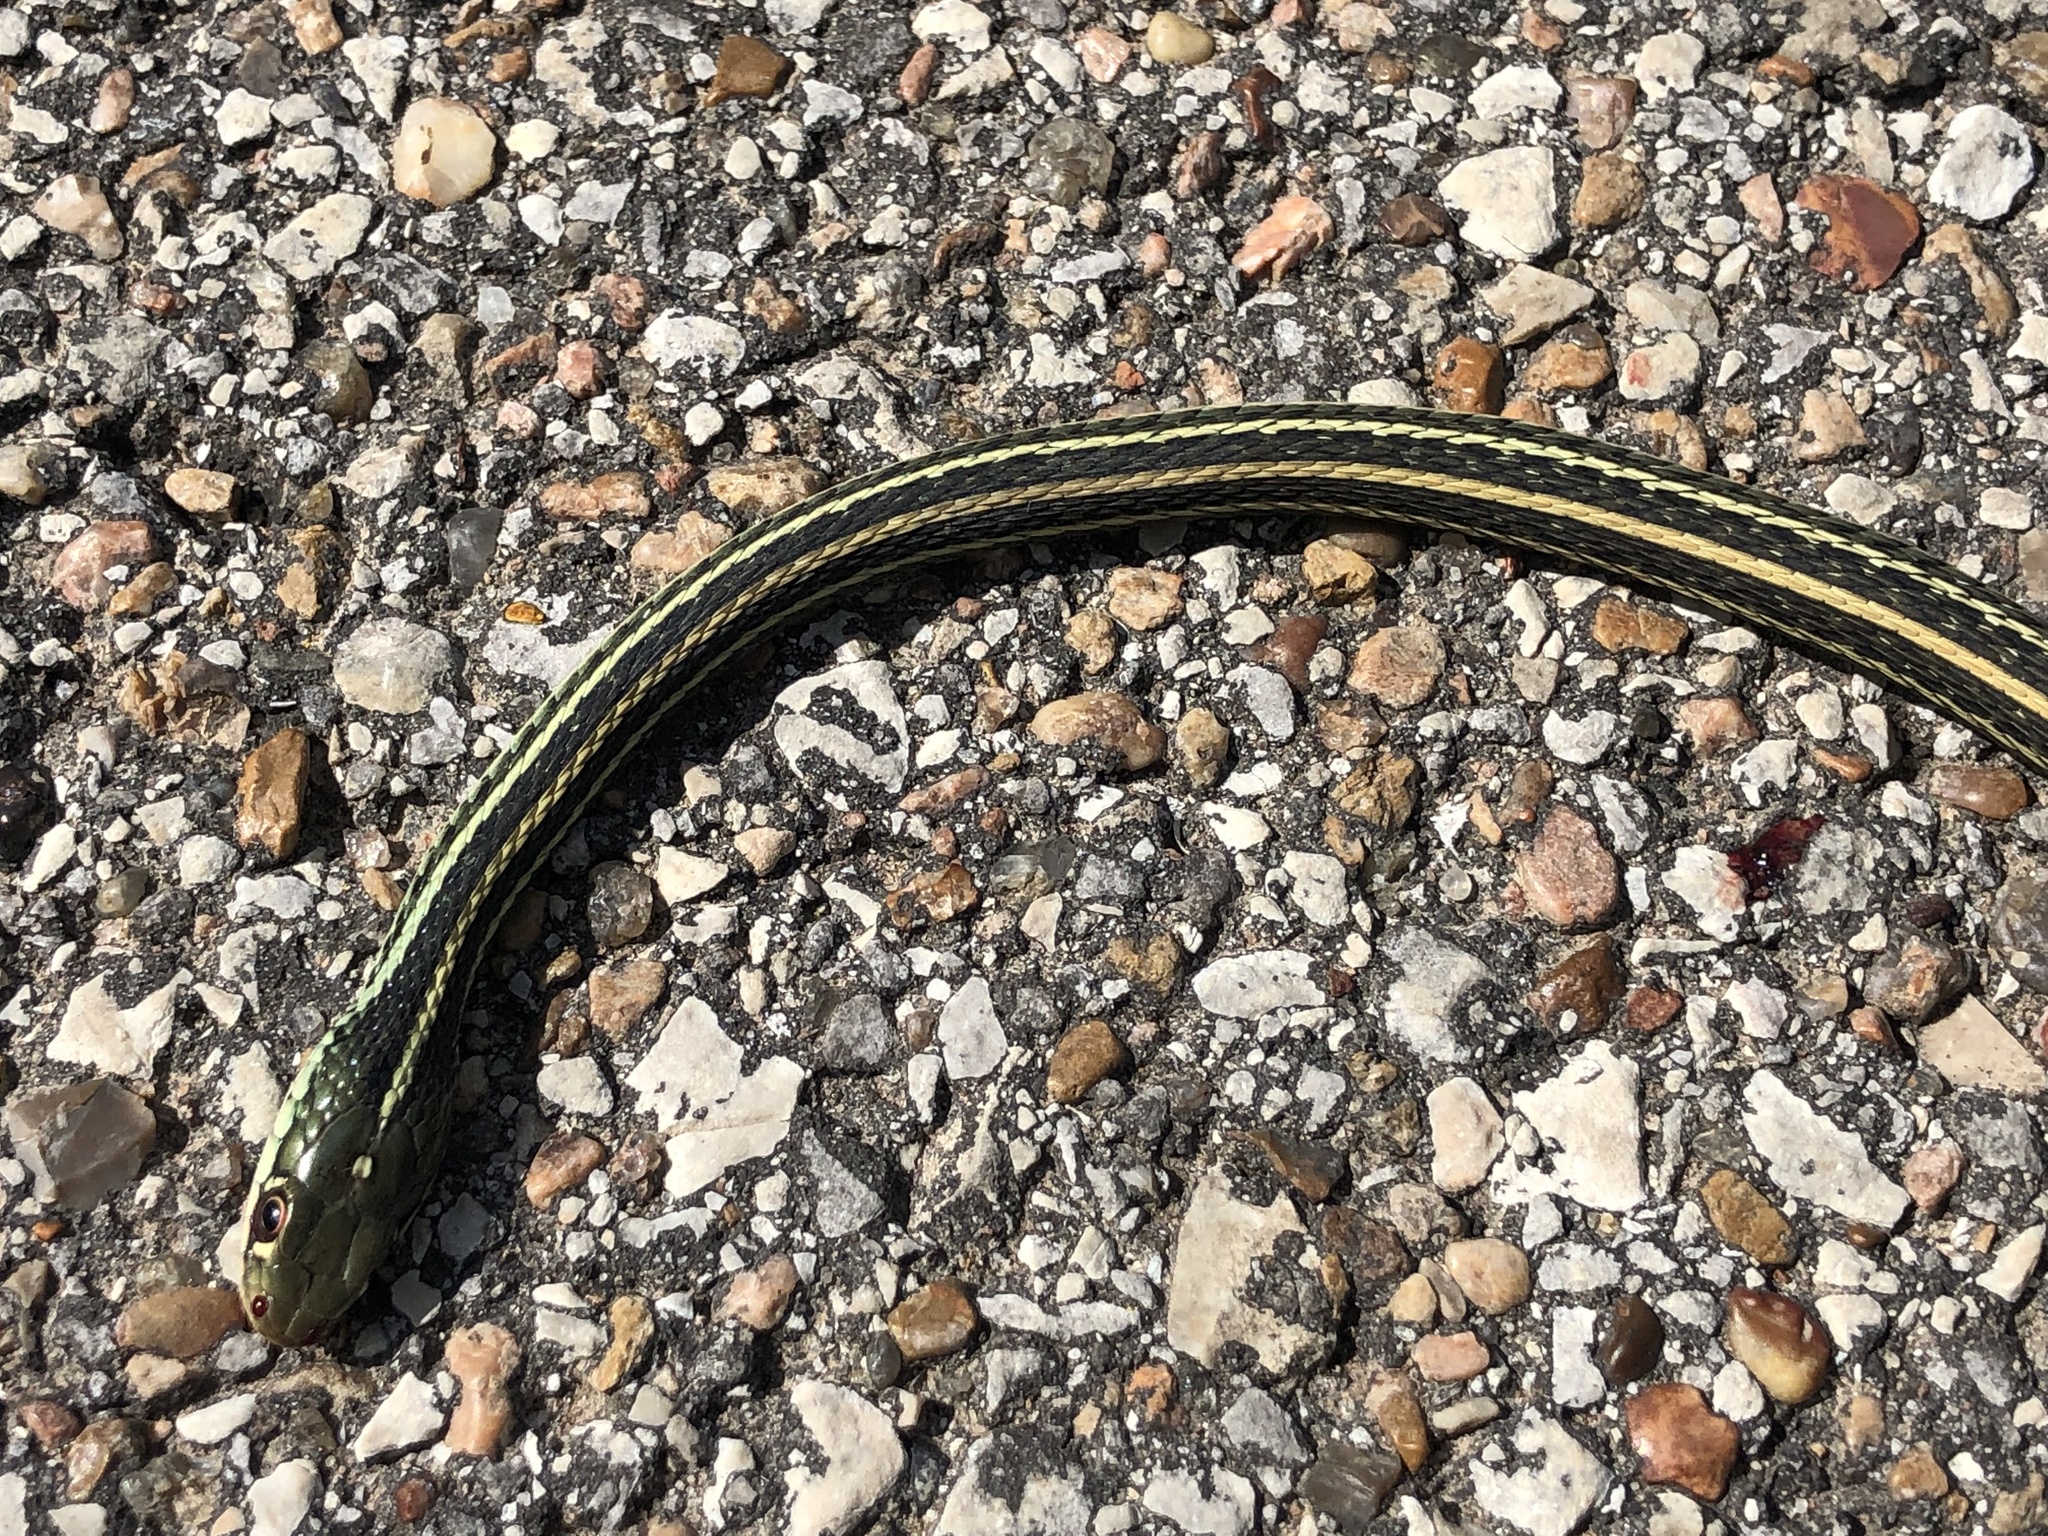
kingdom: Animalia
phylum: Chordata
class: Squamata
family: Colubridae
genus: Thamnophis
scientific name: Thamnophis proximus
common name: Western ribbon snake
